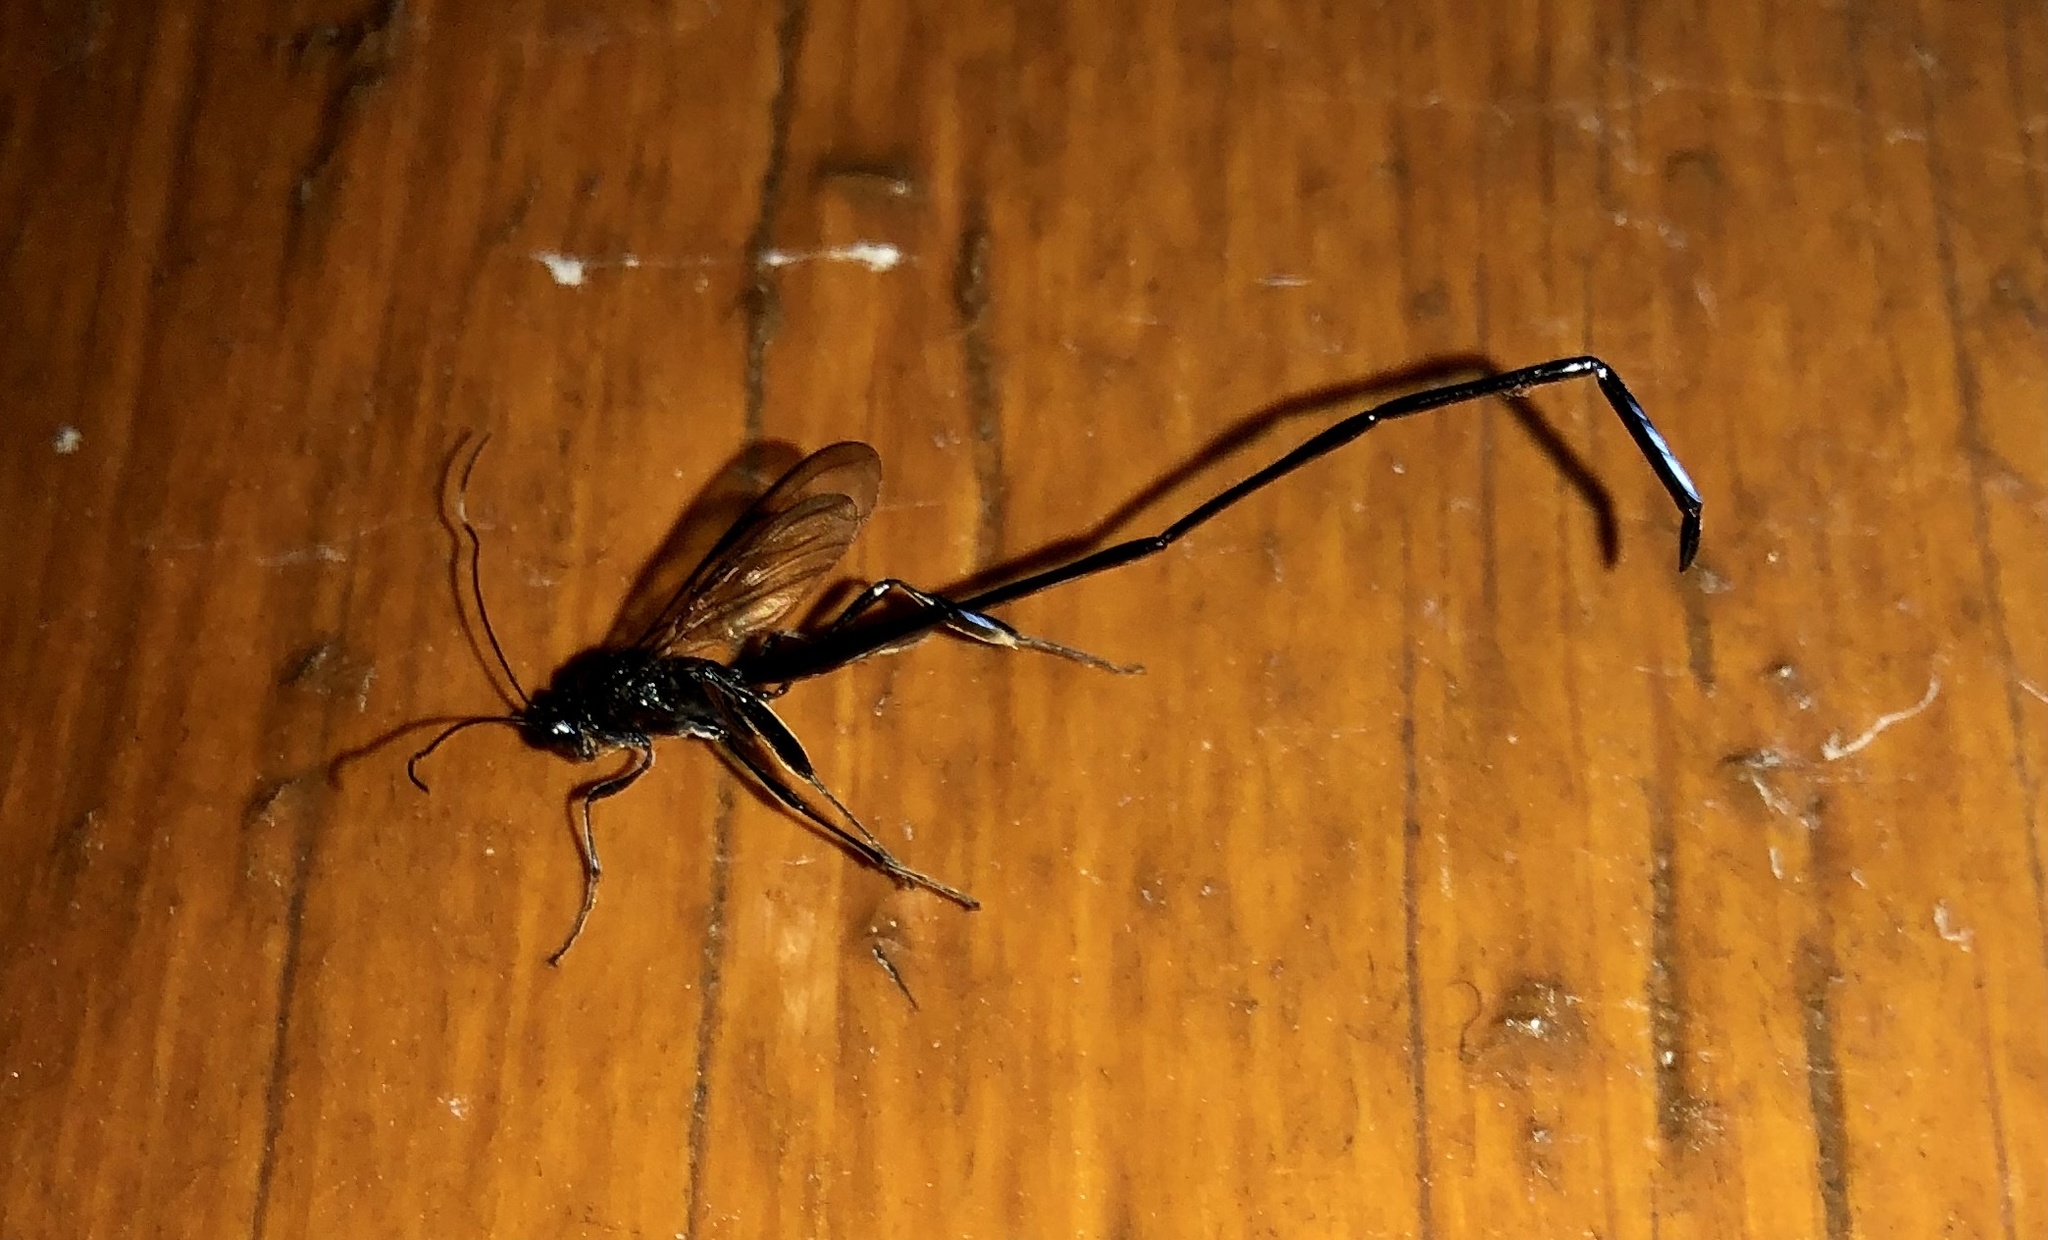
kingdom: Animalia
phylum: Arthropoda
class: Insecta
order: Hymenoptera
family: Pelecinidae
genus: Pelecinus
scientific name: Pelecinus polyturator
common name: American pelecinid wasp
